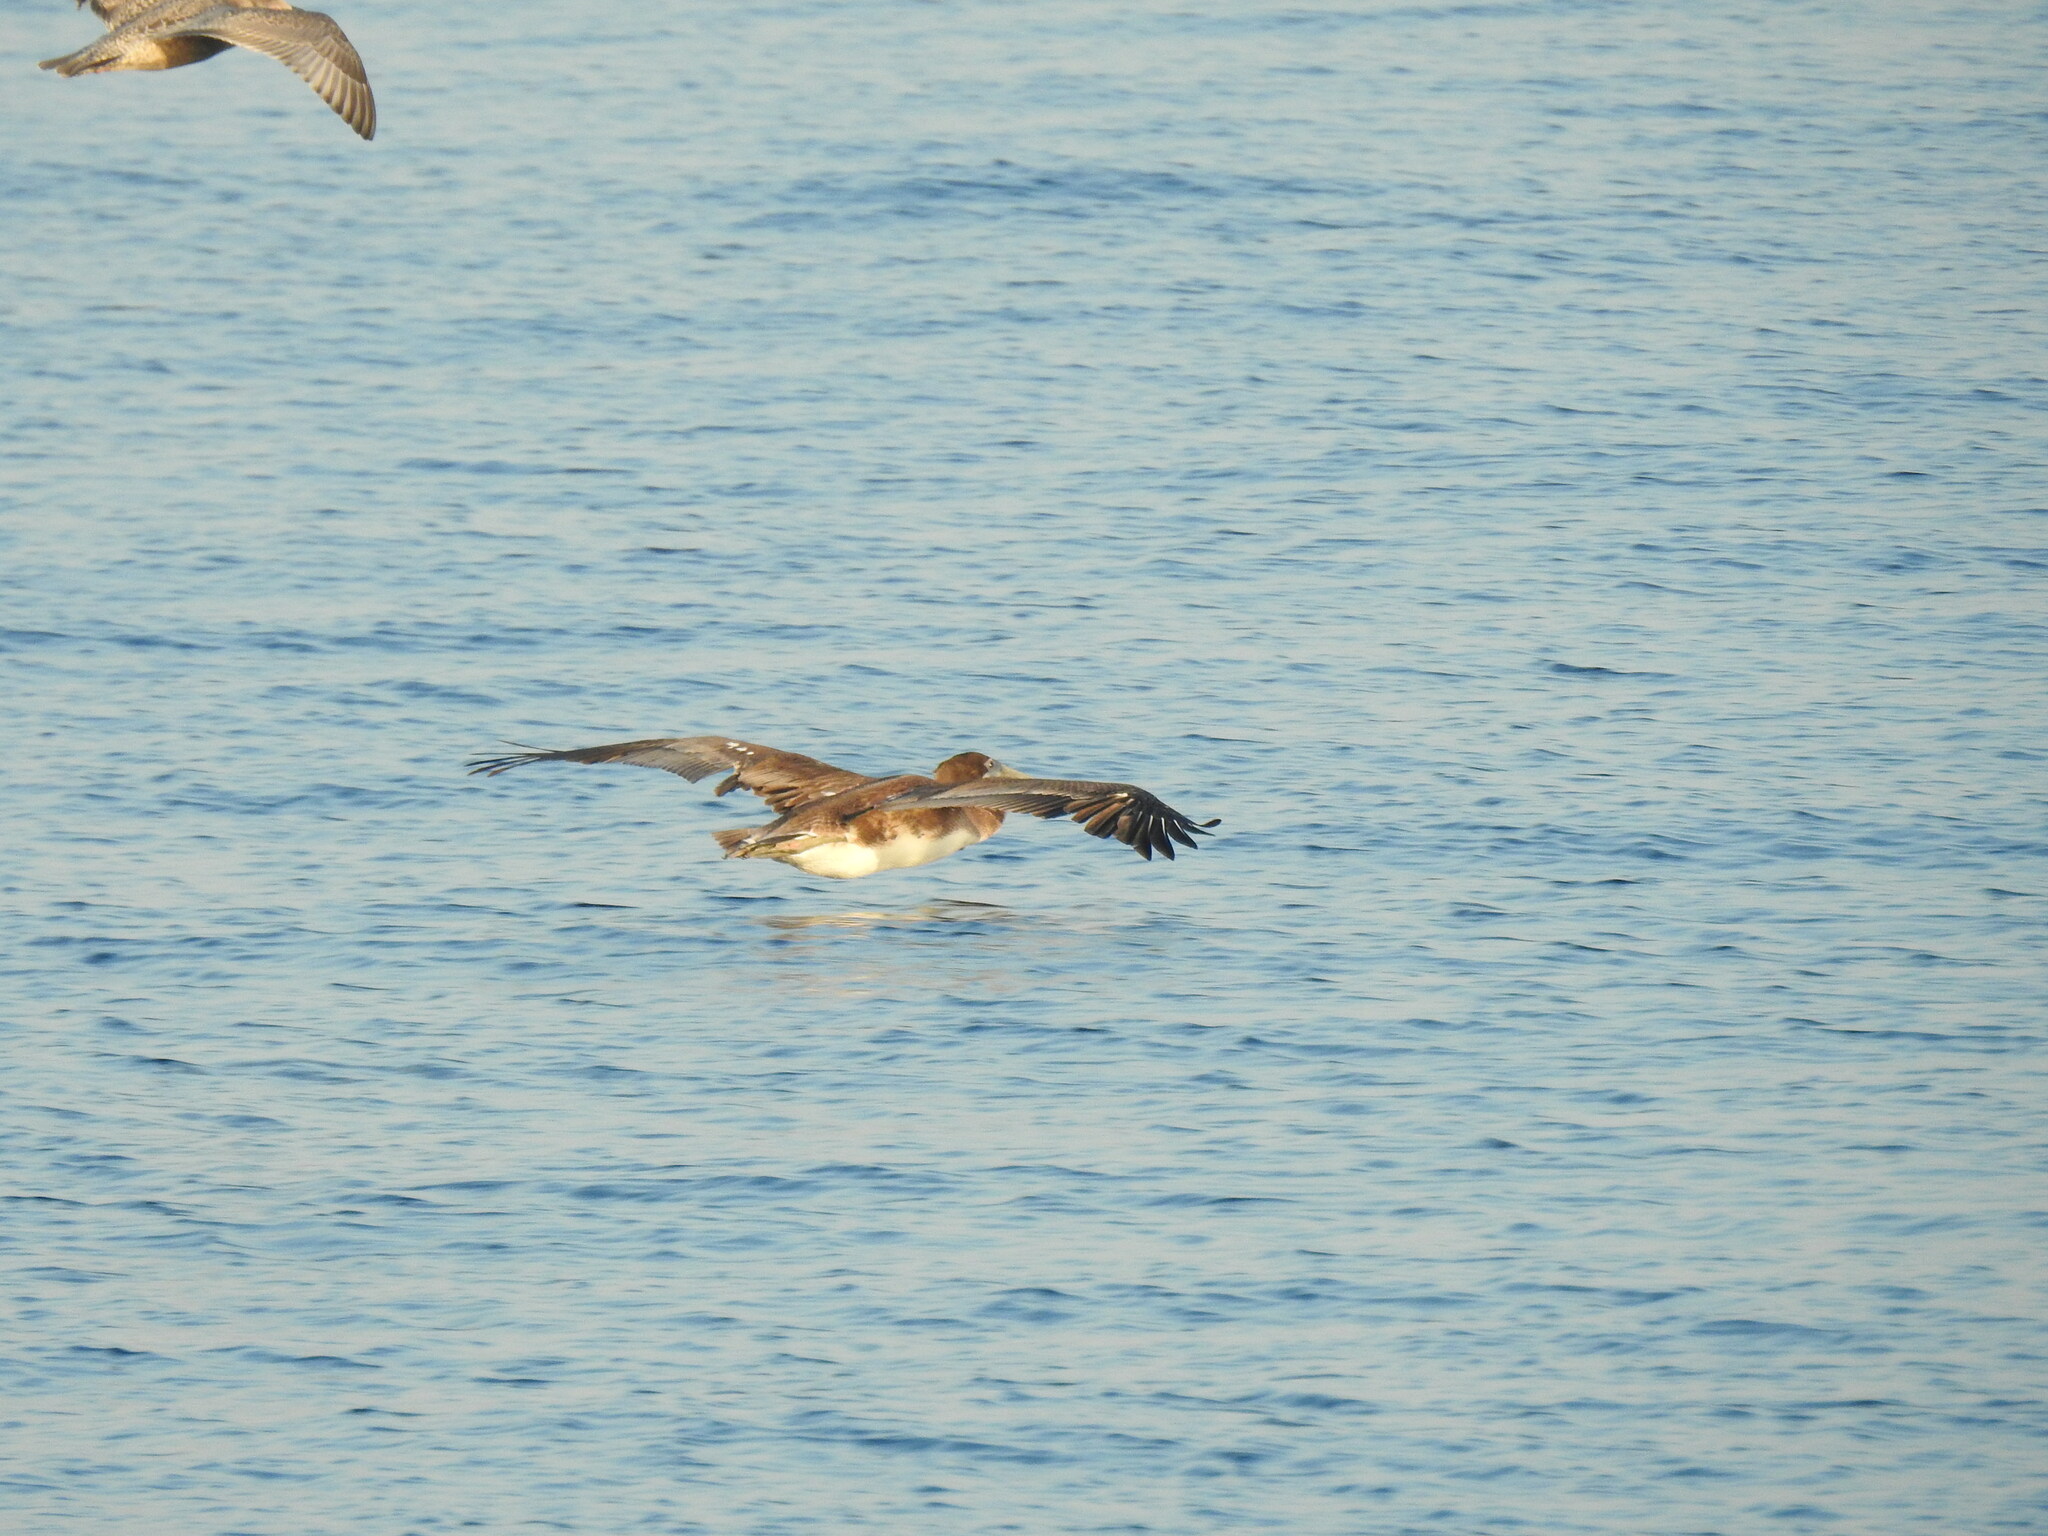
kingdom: Animalia
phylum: Chordata
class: Aves
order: Pelecaniformes
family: Pelecanidae
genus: Pelecanus
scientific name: Pelecanus occidentalis
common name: Brown pelican
